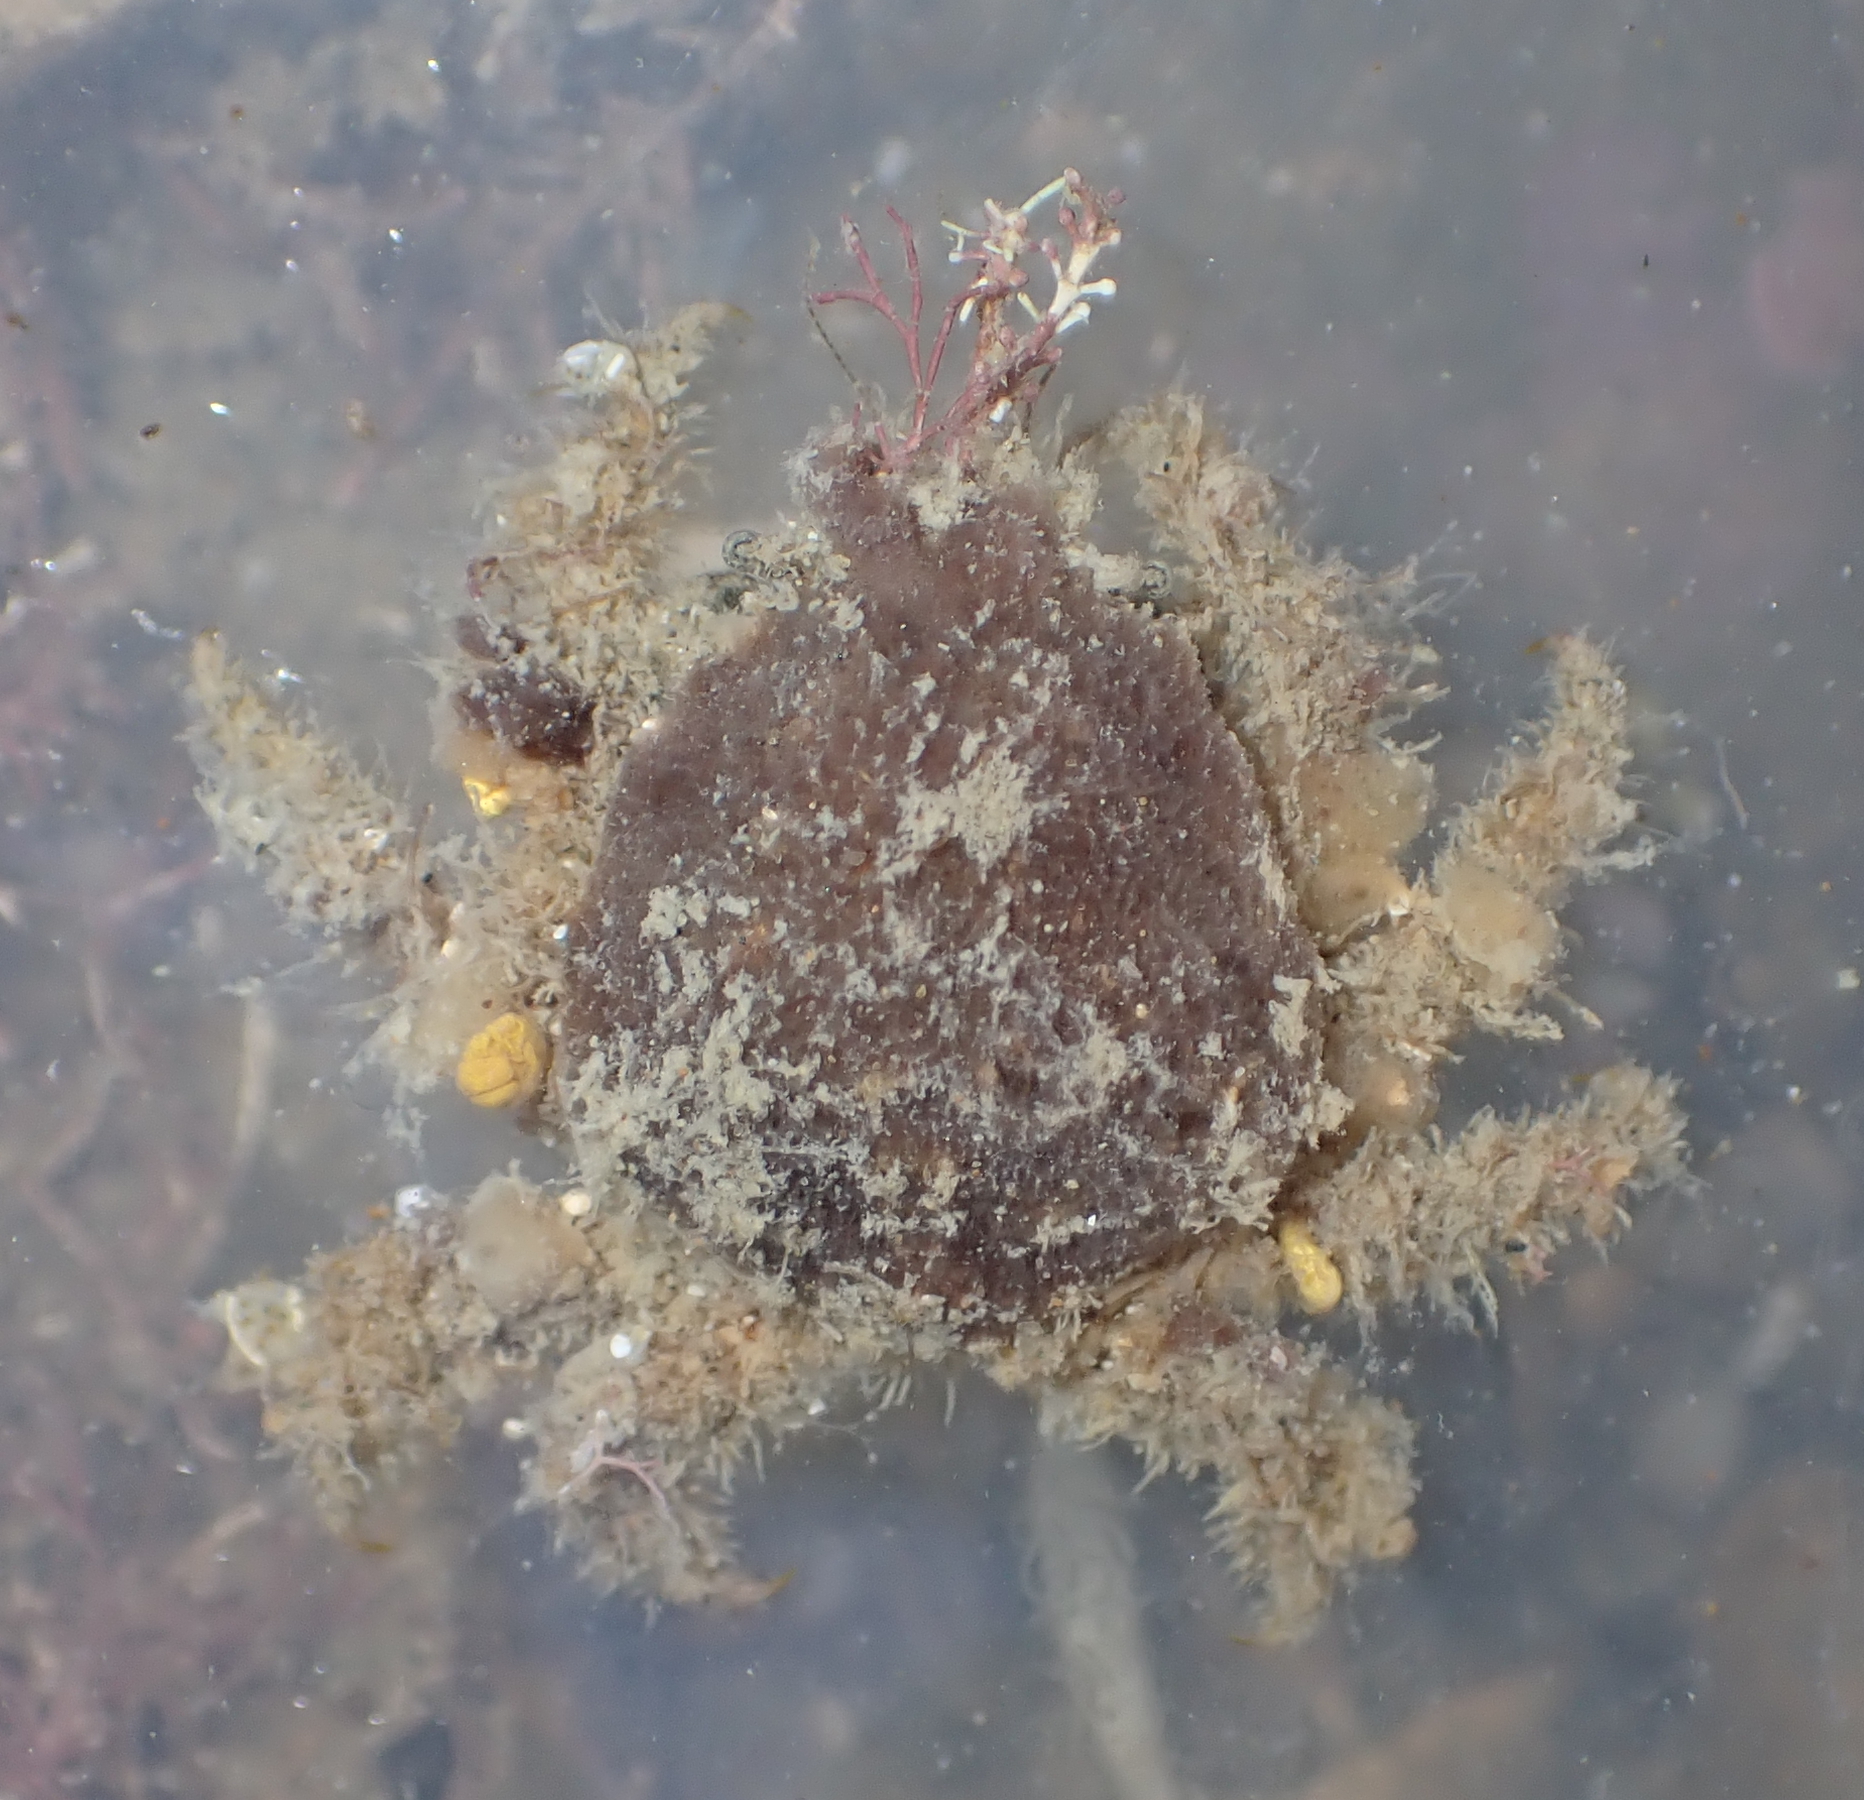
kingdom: Animalia
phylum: Arthropoda
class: Malacostraca
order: Decapoda
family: Majidae
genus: Notomithrax
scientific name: Notomithrax minor
